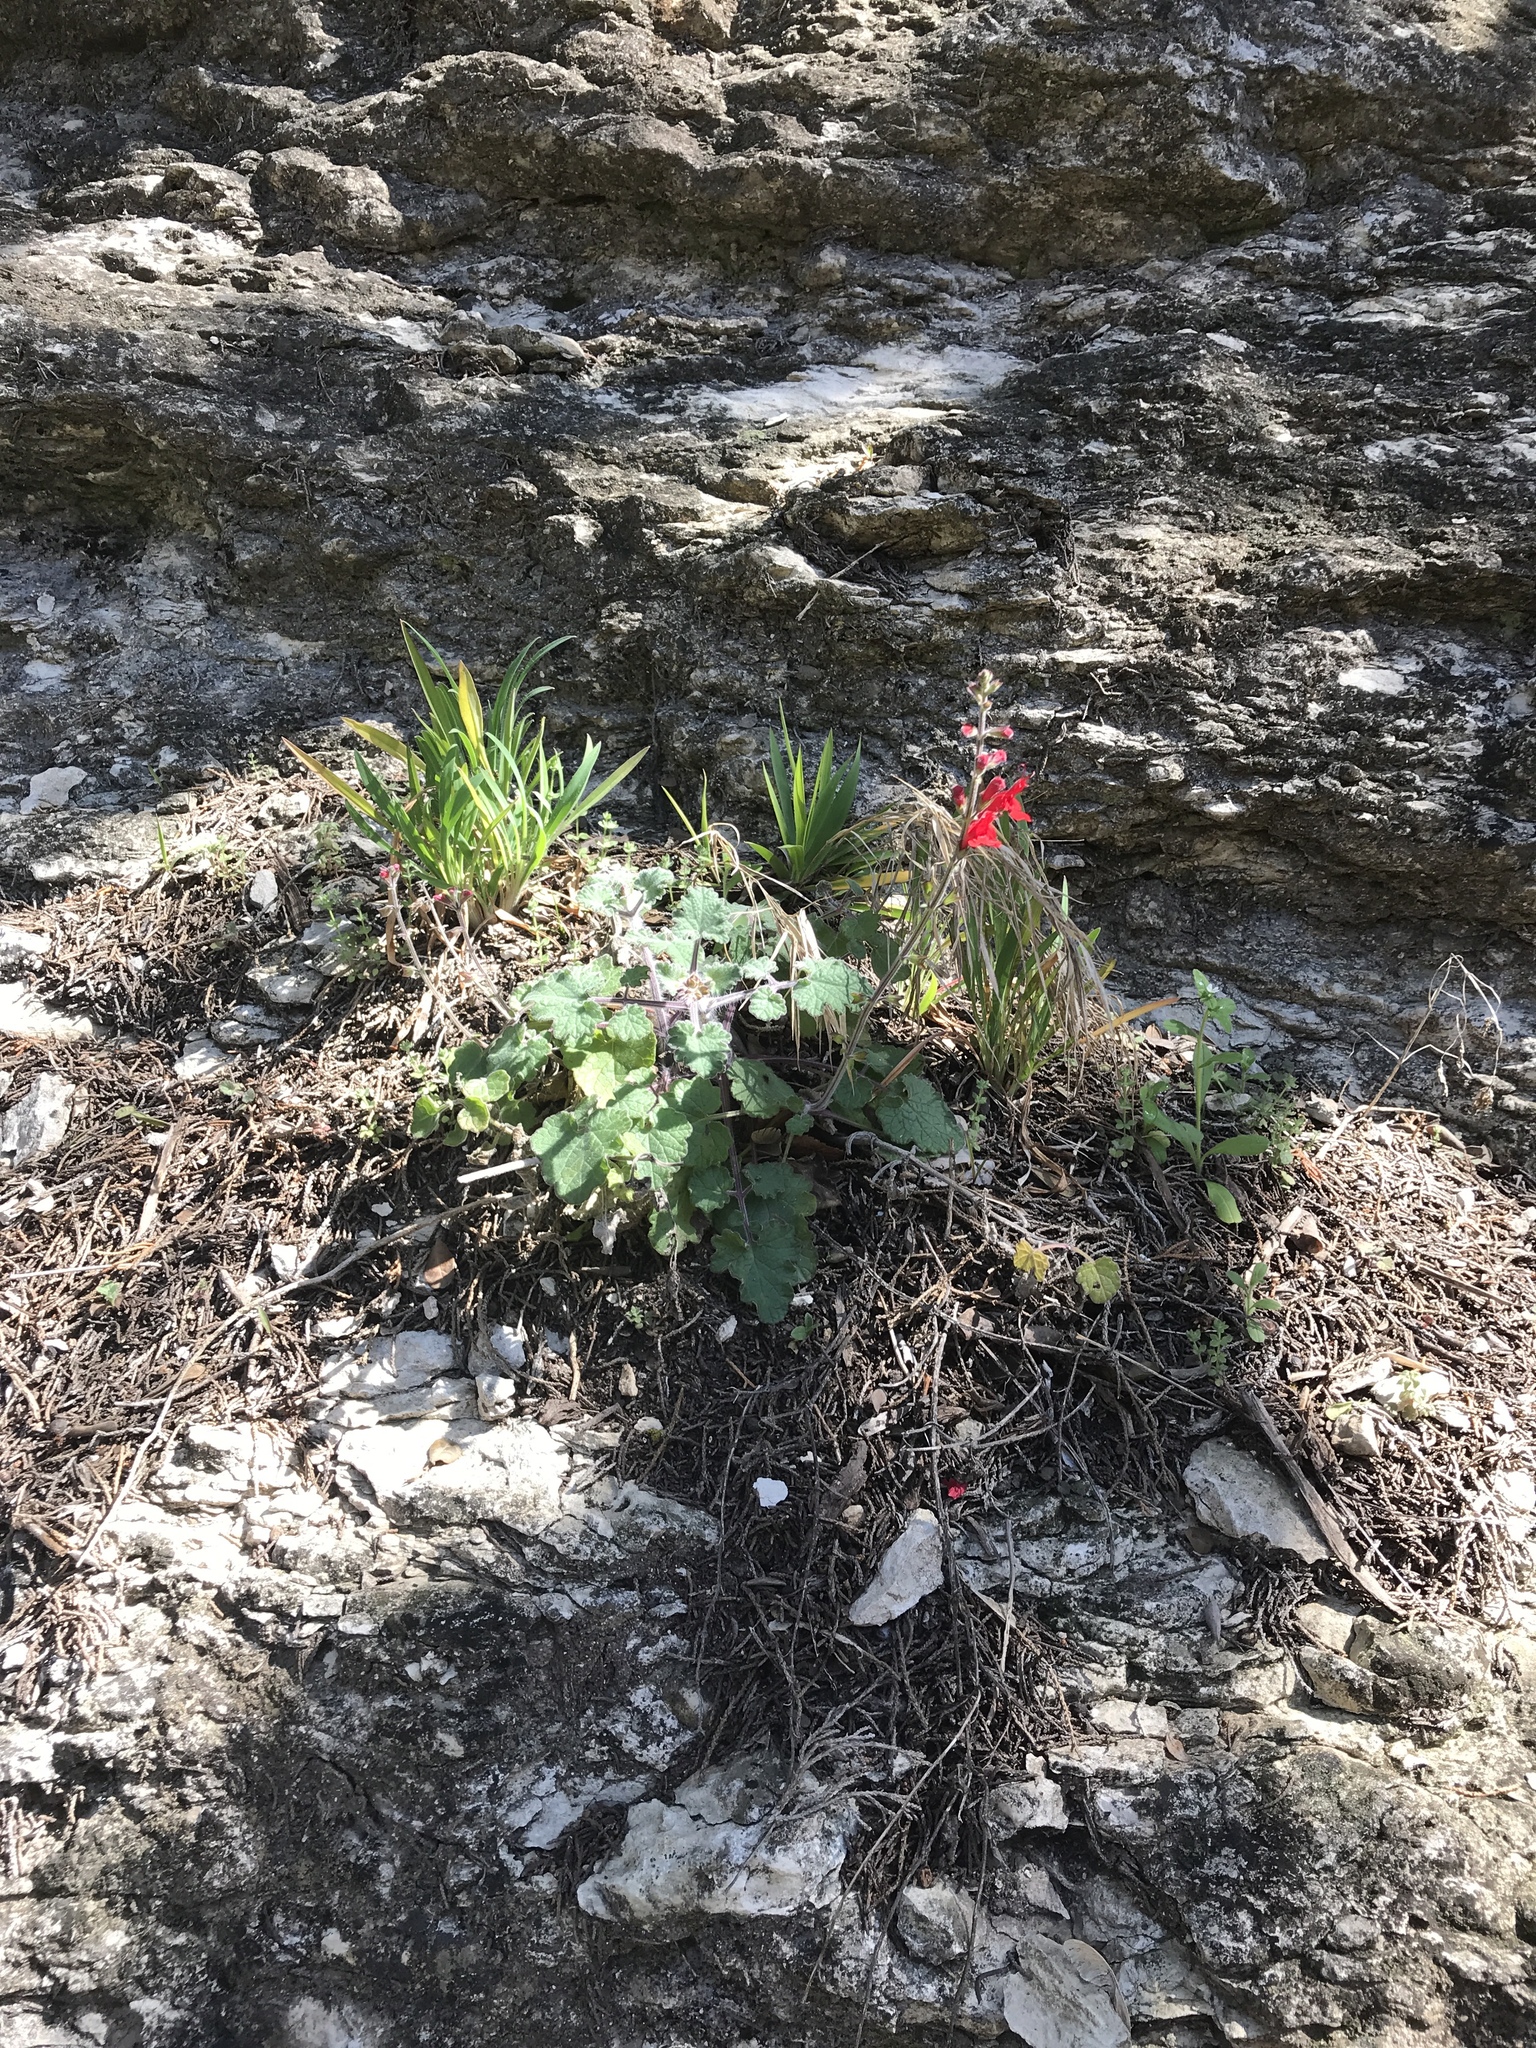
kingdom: Plantae
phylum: Tracheophyta
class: Magnoliopsida
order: Lamiales
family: Lamiaceae
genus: Salvia
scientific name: Salvia roemeriana
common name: Cedar sage
